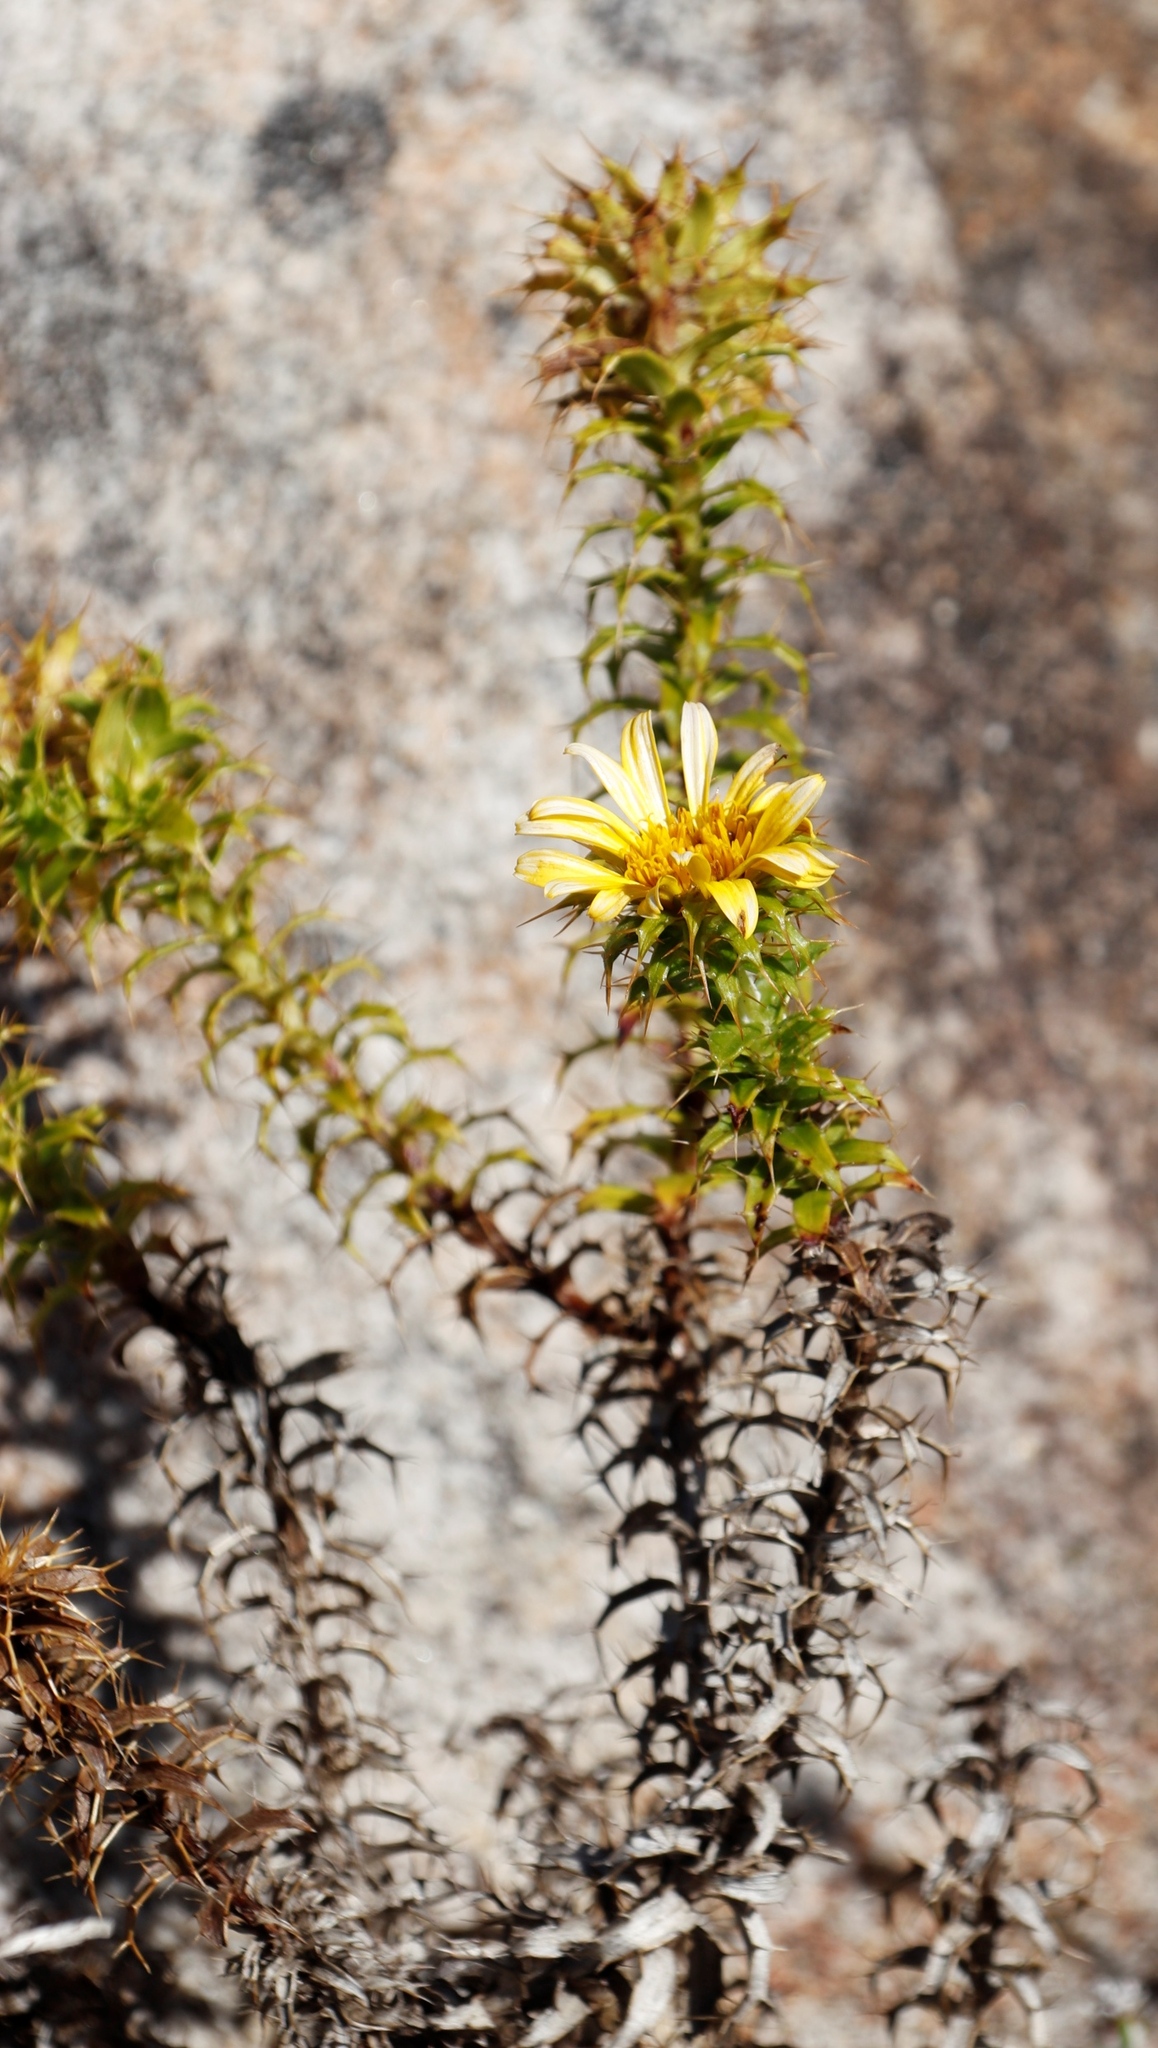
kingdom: Plantae
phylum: Tracheophyta
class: Magnoliopsida
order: Asterales
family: Asteraceae
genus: Cullumia
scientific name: Cullumia setosa
